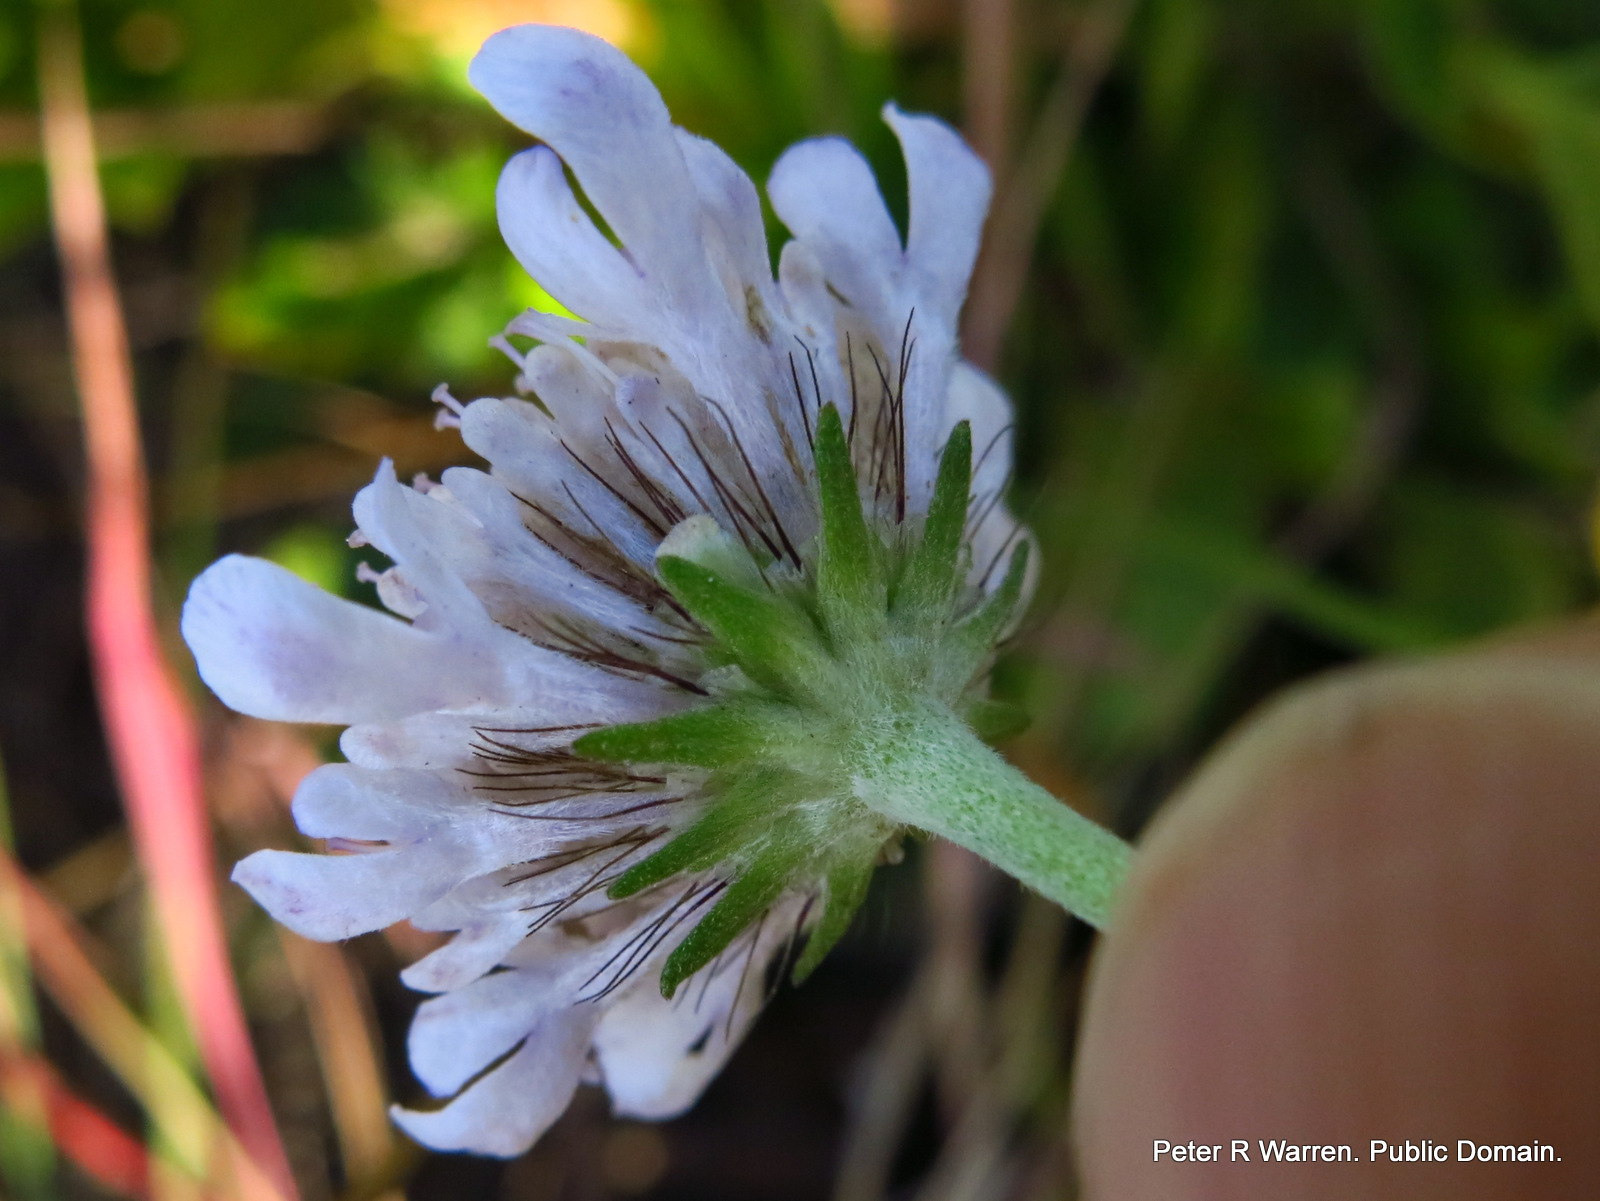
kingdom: Plantae
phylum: Tracheophyta
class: Magnoliopsida
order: Dipsacales
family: Caprifoliaceae
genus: Scabiosa
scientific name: Scabiosa columbaria
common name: Small scabious
